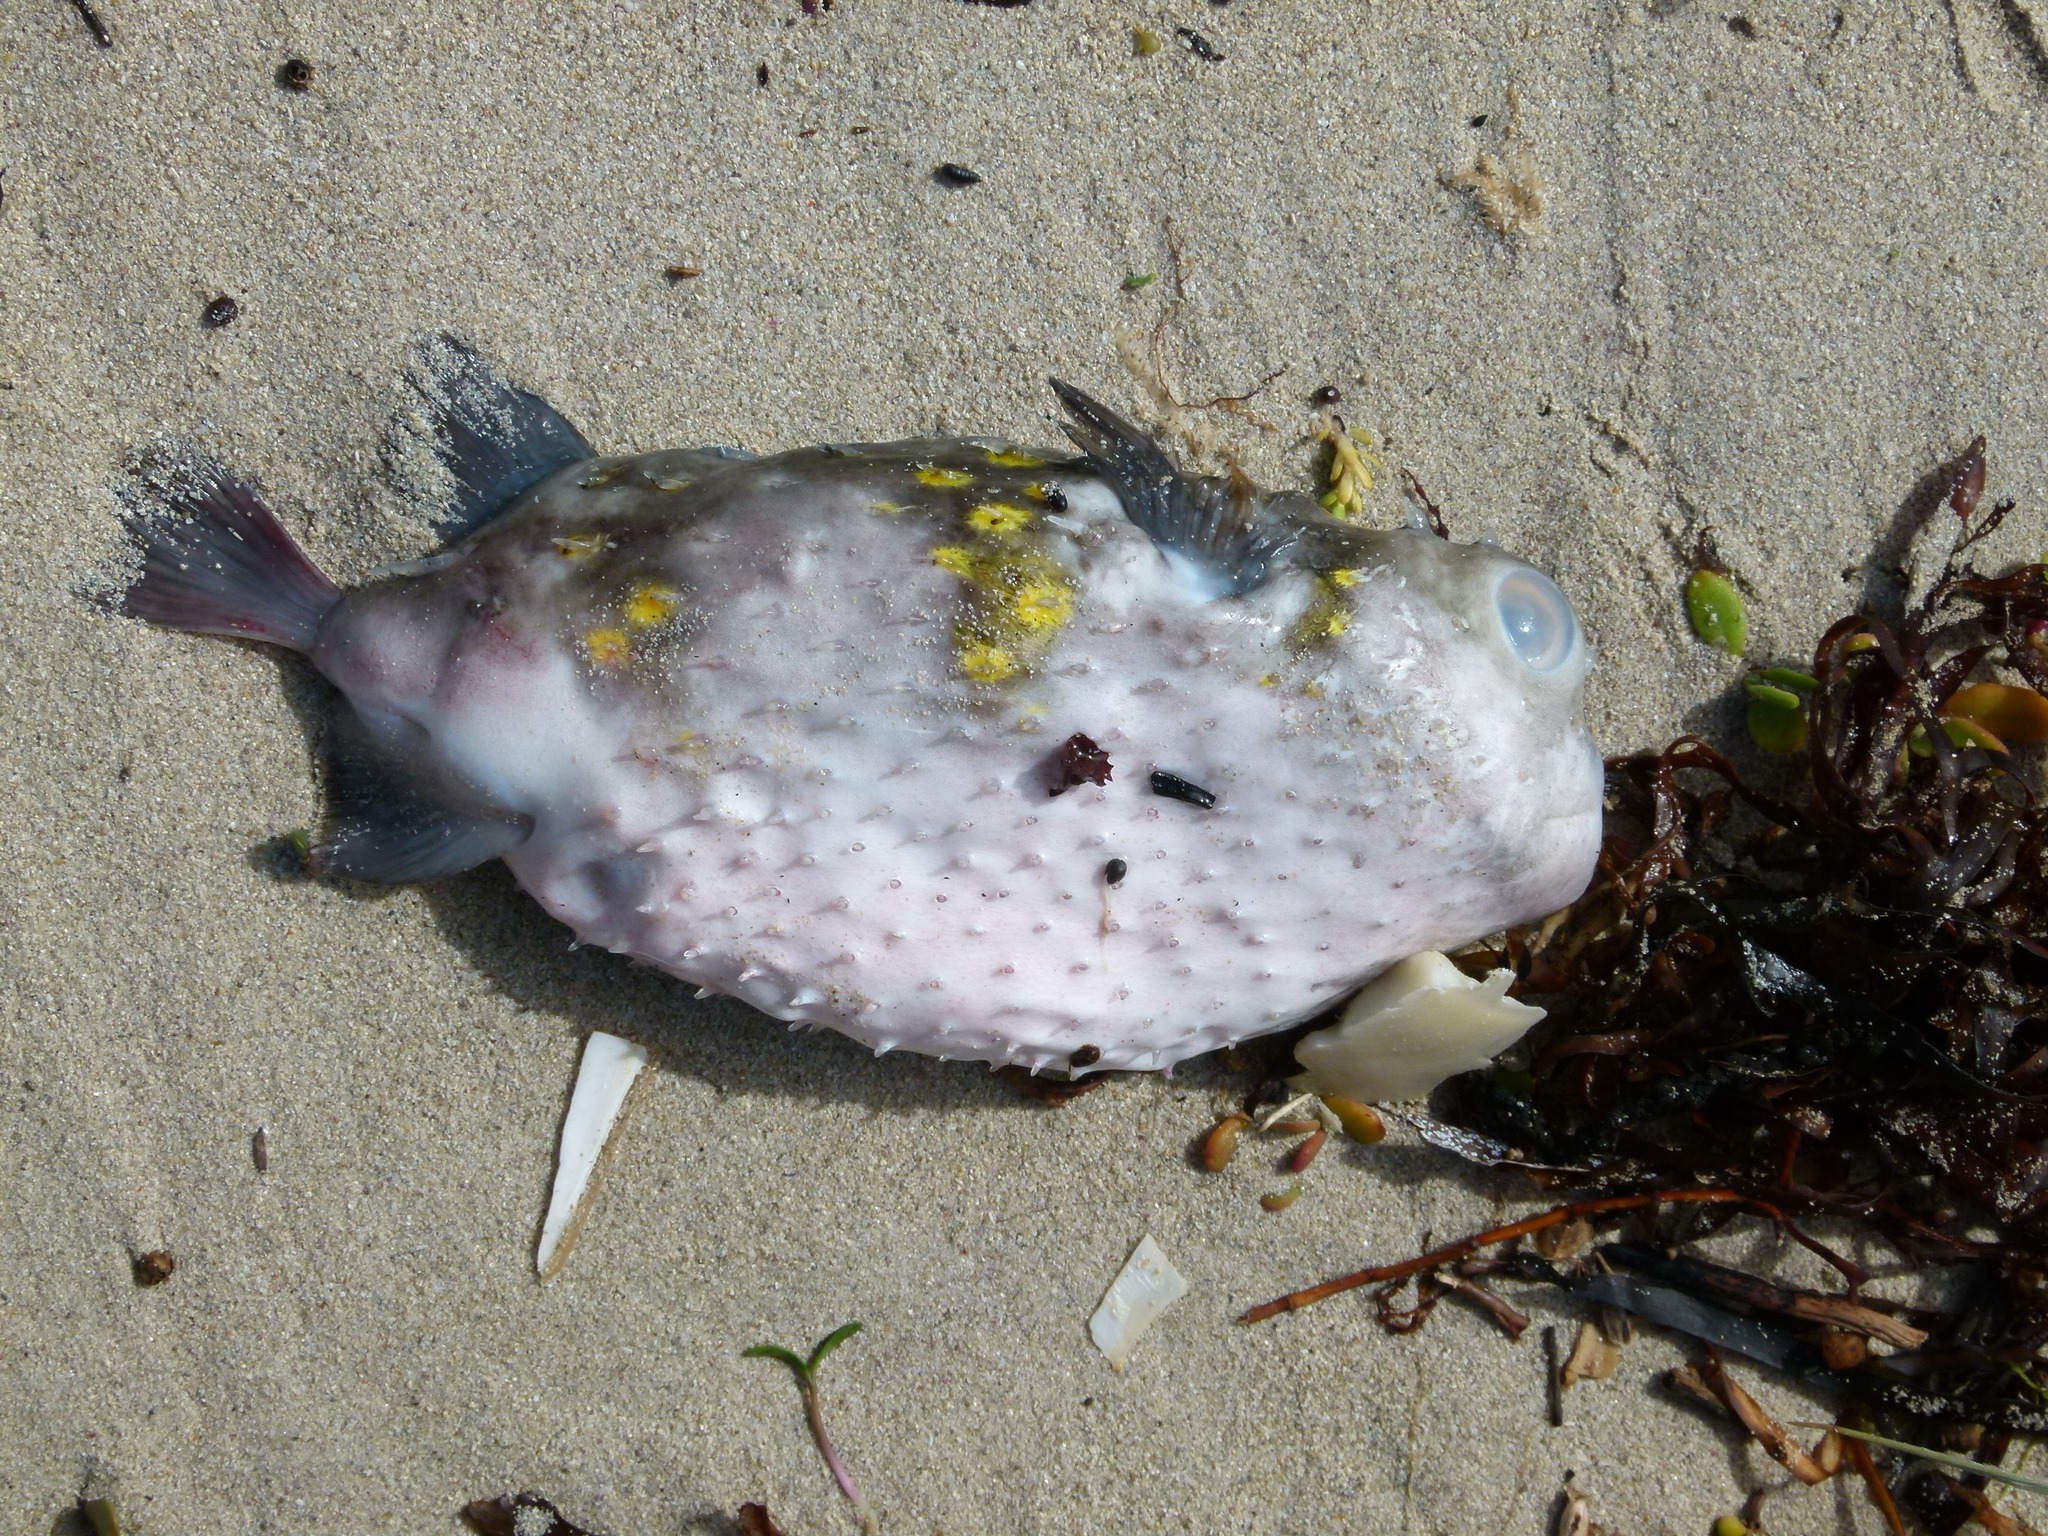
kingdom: Animalia
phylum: Chordata
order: Tetraodontiformes
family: Diodontidae
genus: Allomycterus
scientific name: Allomycterus pilatus
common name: No common name
